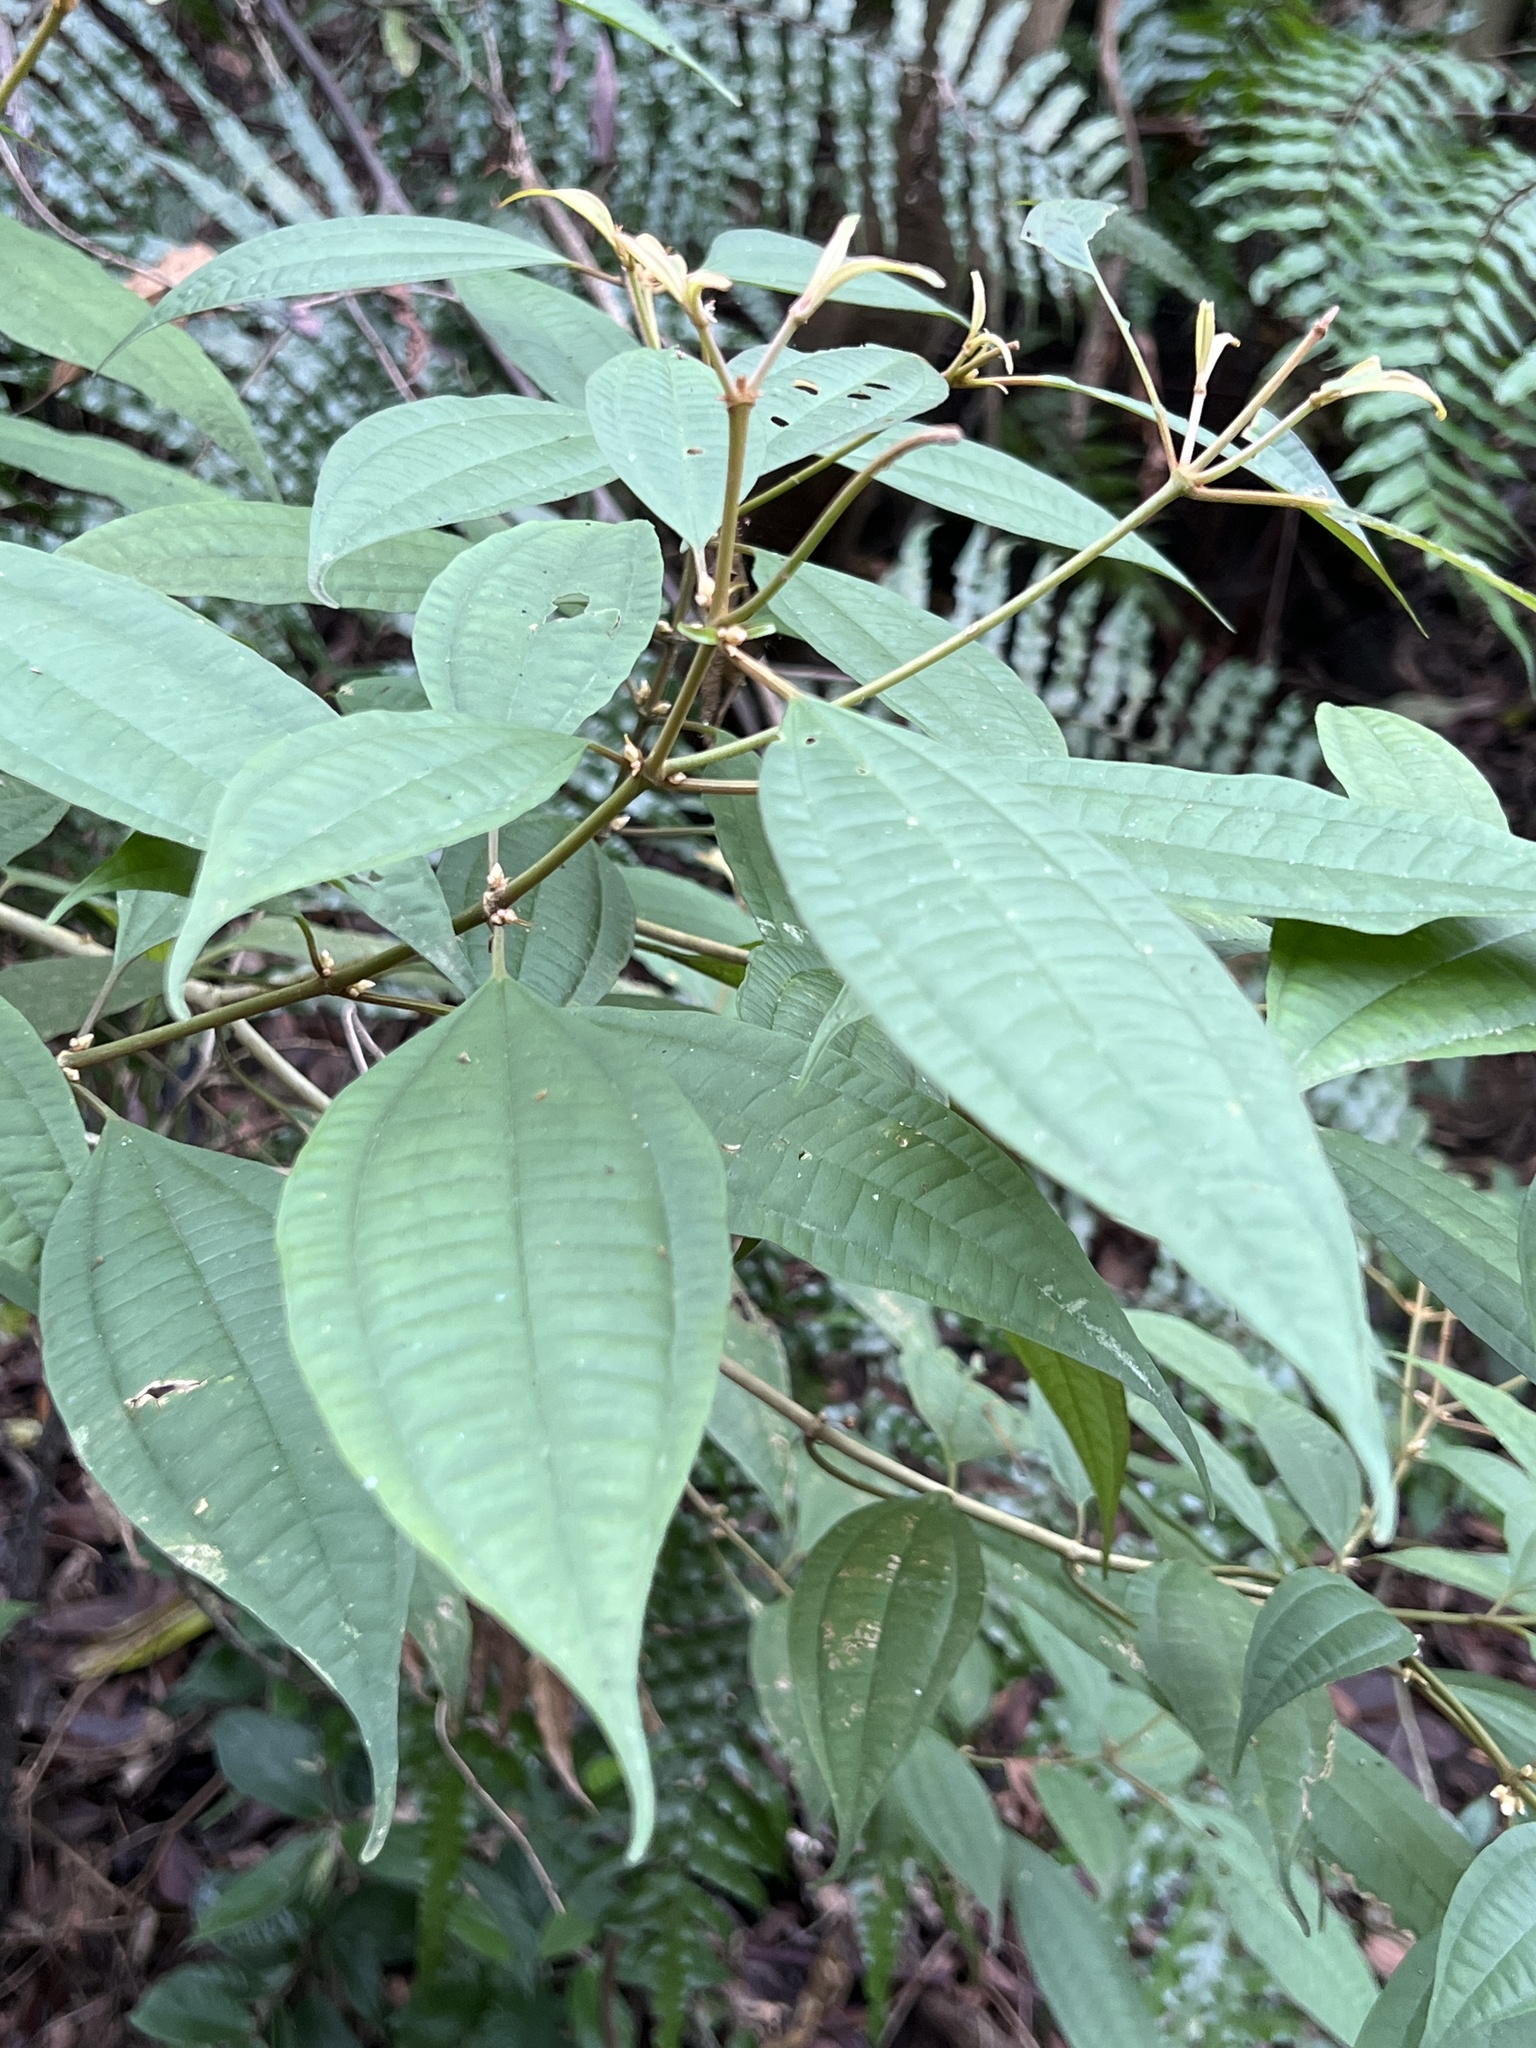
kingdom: Plantae
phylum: Tracheophyta
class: Magnoliopsida
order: Myrtales
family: Melastomataceae
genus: Blastus
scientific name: Blastus cochinchinensis
